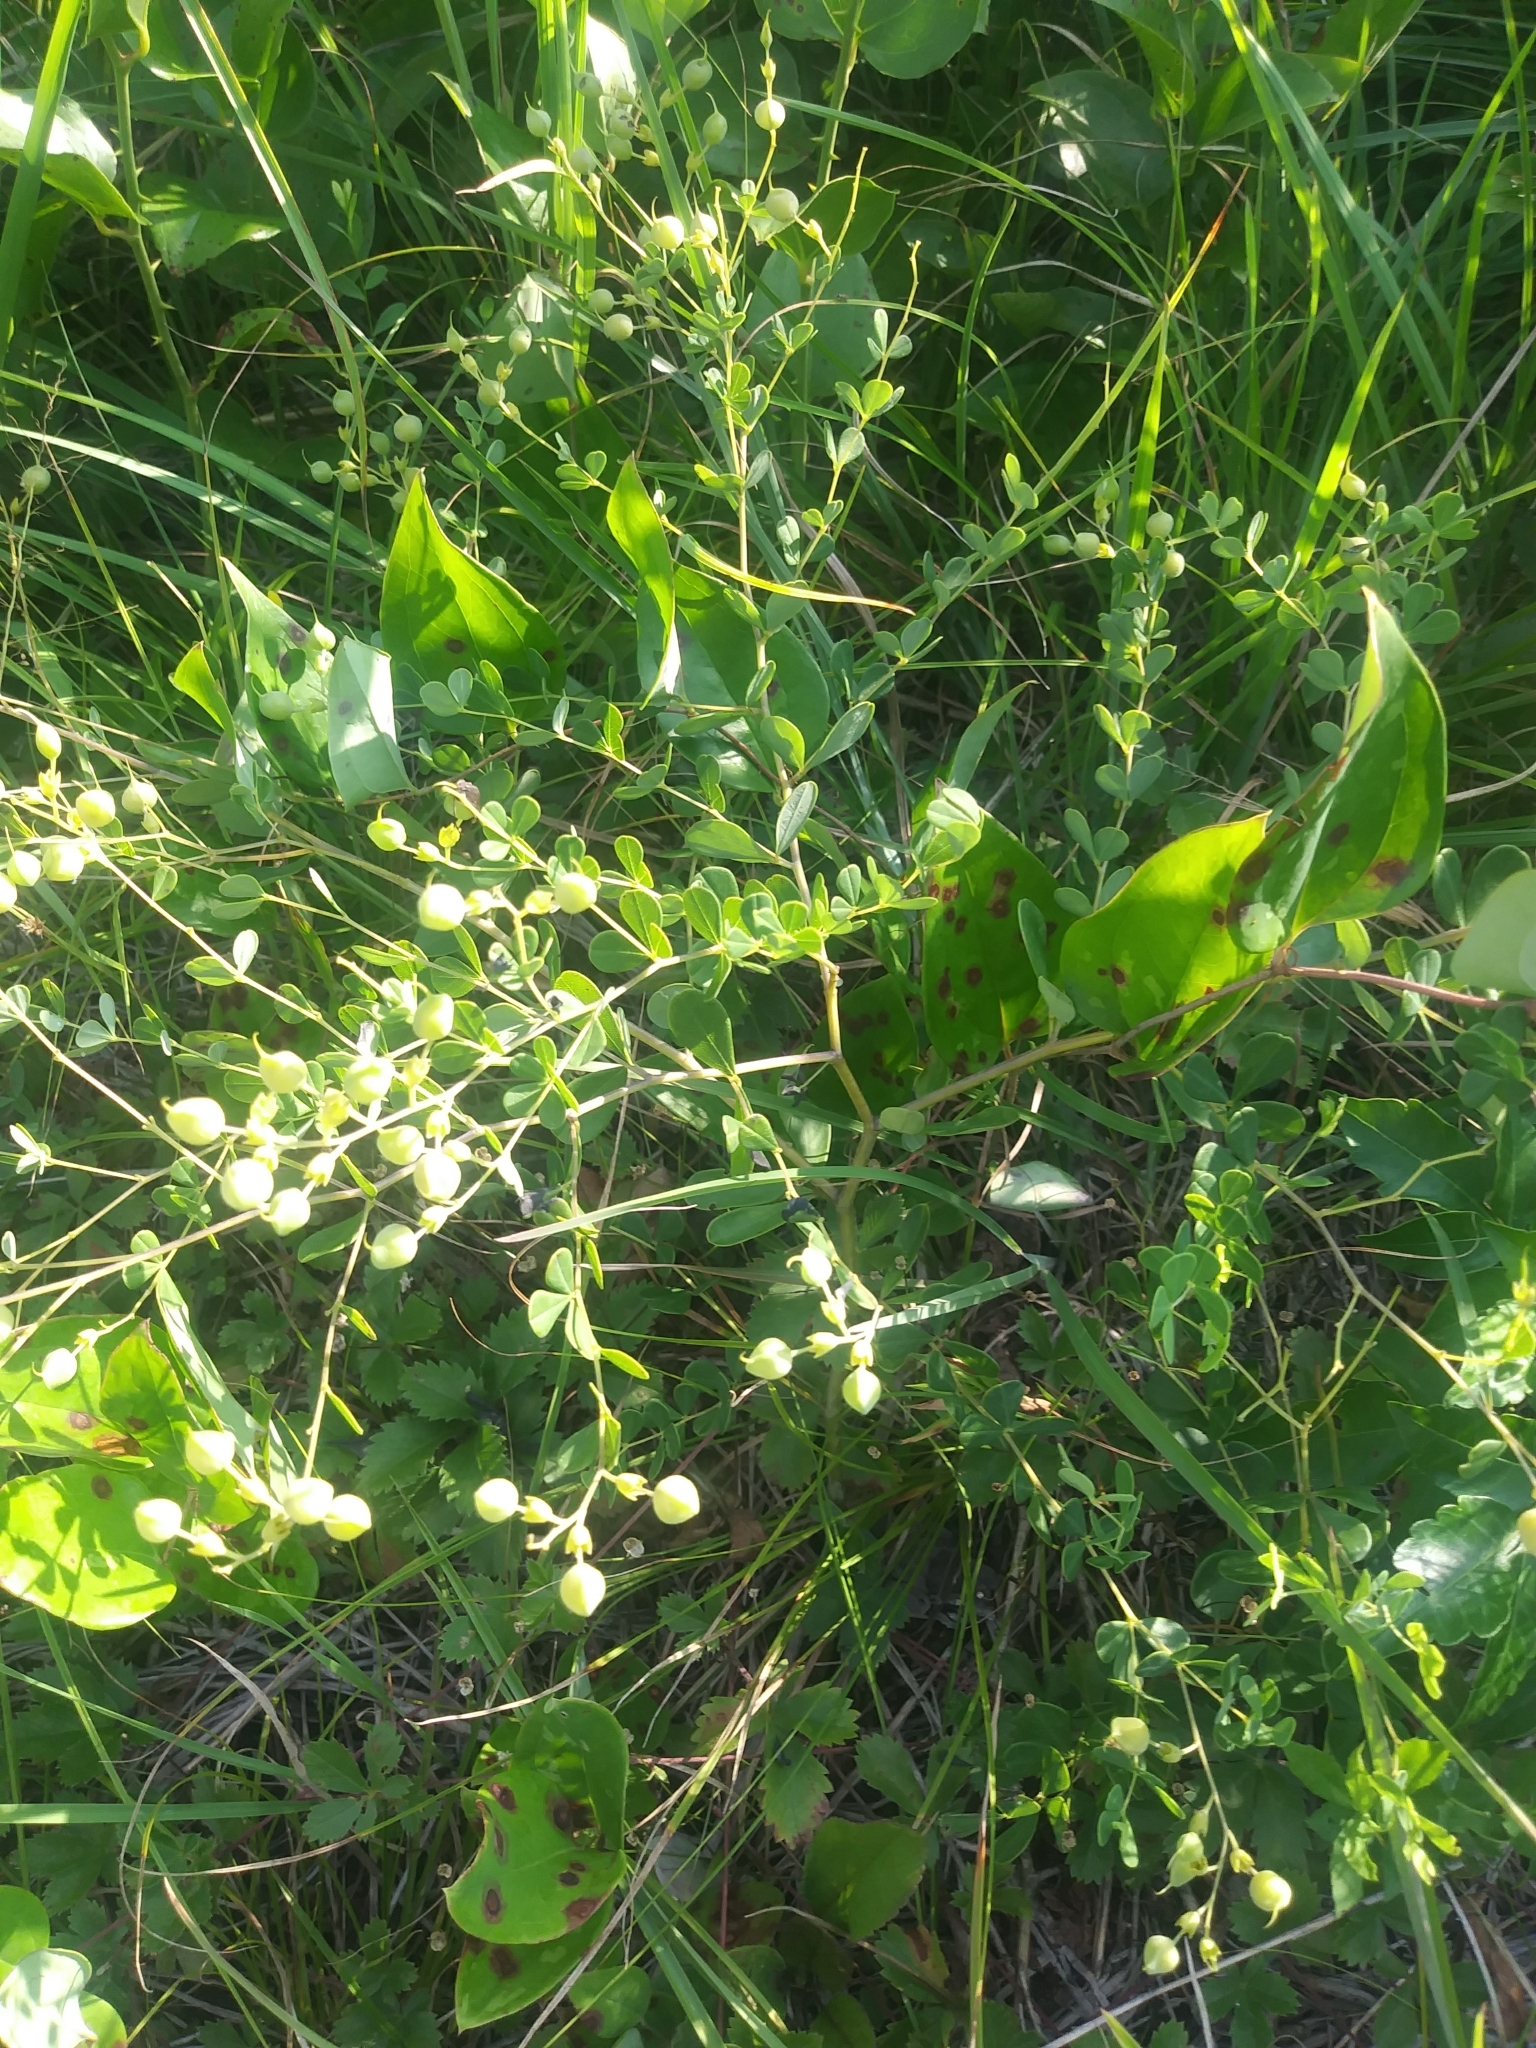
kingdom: Plantae
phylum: Tracheophyta
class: Magnoliopsida
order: Fabales
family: Fabaceae
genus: Baptisia
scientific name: Baptisia tinctoria
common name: Wild indigo
